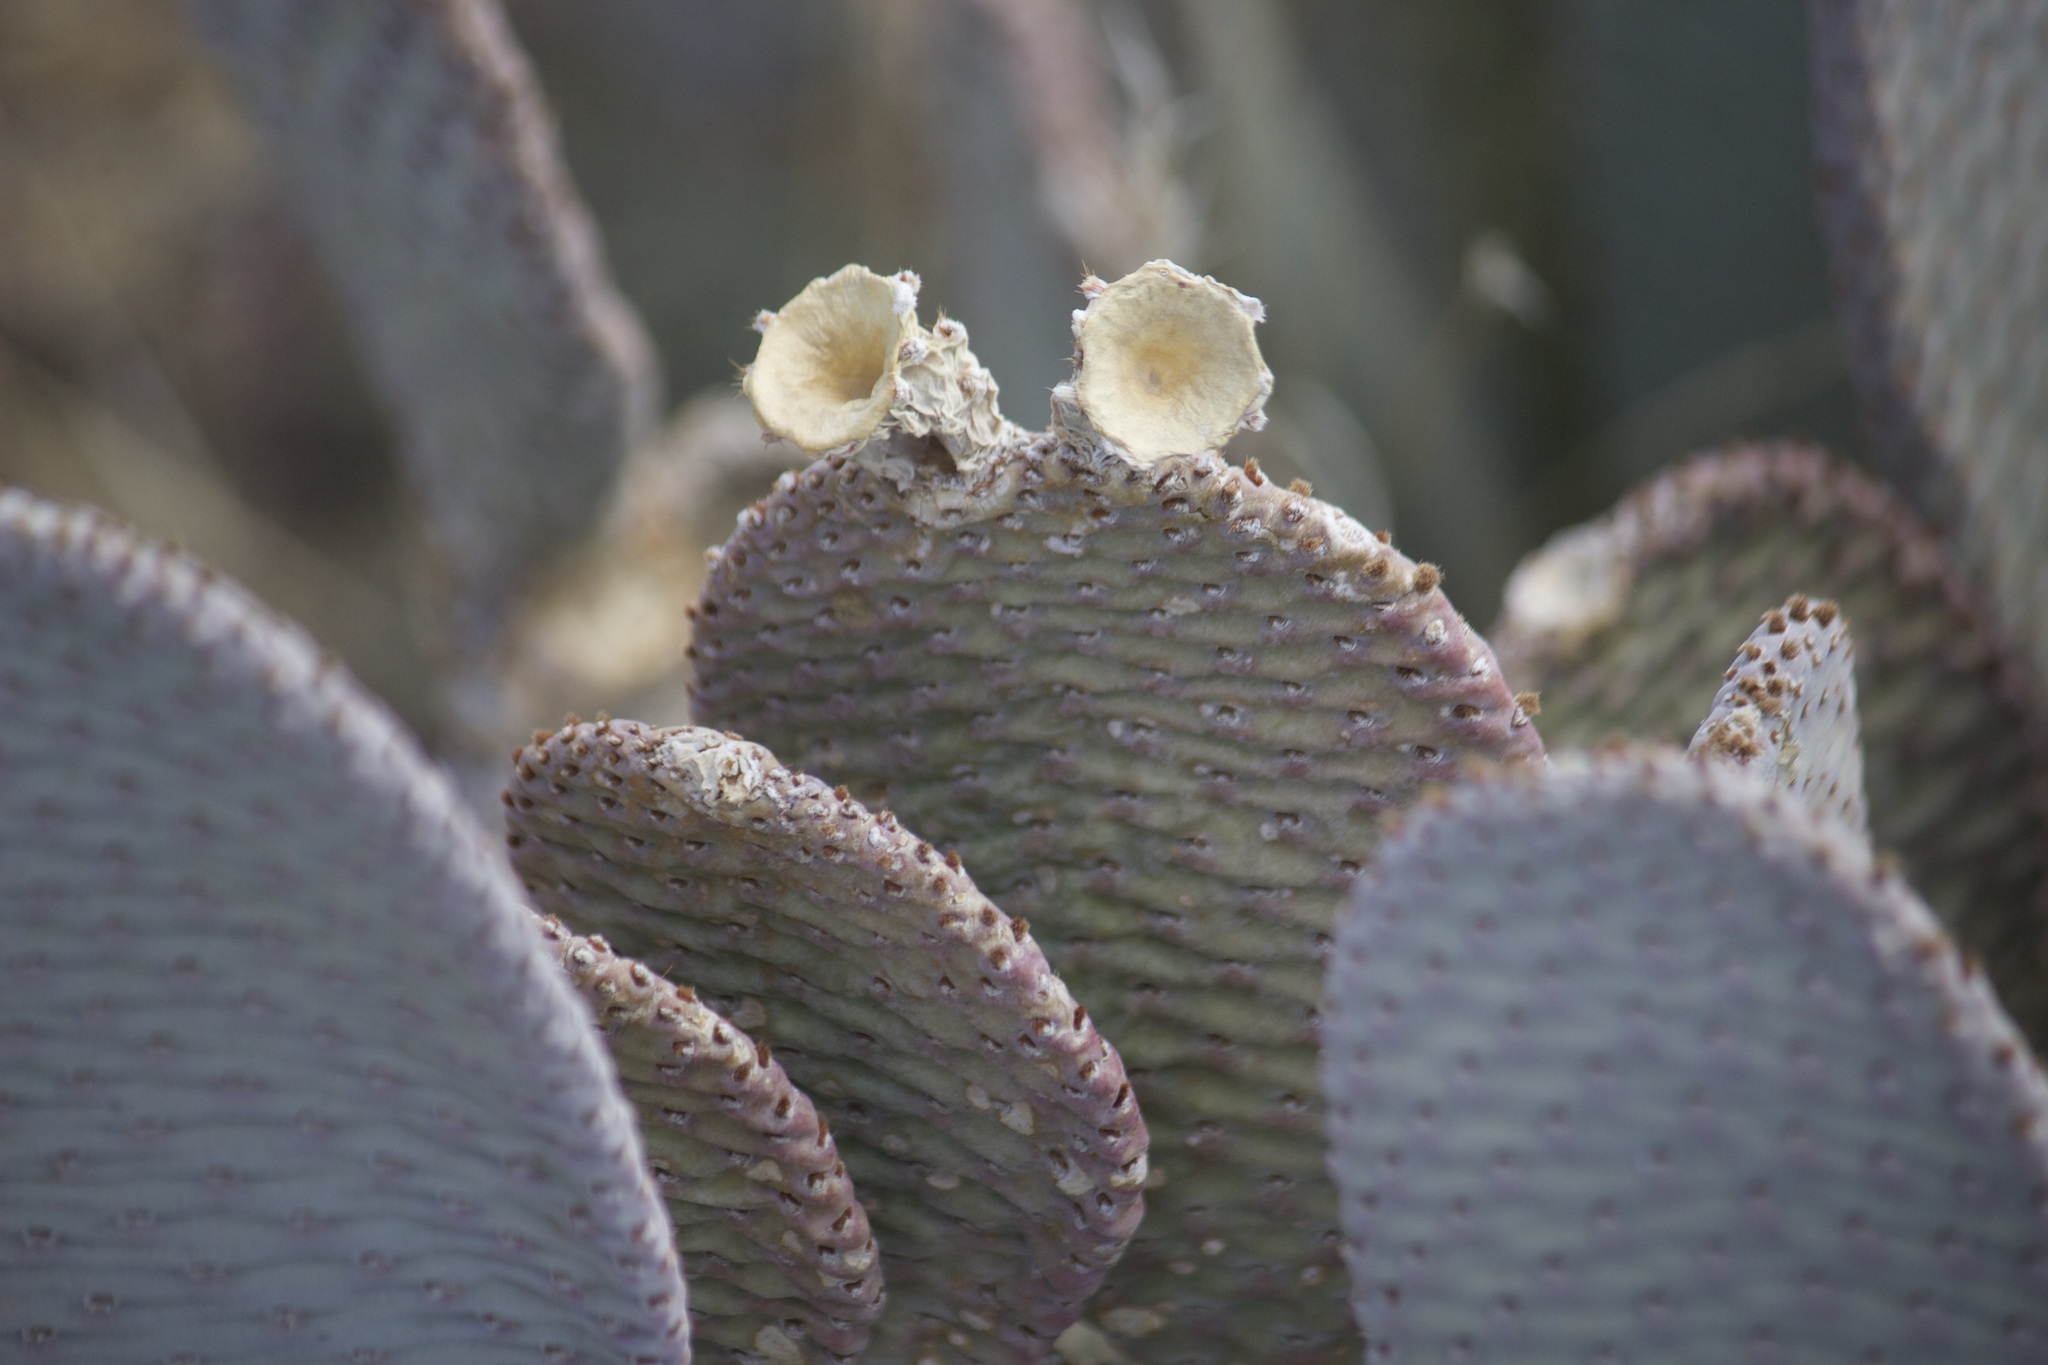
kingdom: Plantae
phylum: Tracheophyta
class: Magnoliopsida
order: Caryophyllales
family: Cactaceae
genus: Opuntia
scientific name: Opuntia basilaris
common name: Beavertail prickly-pear
